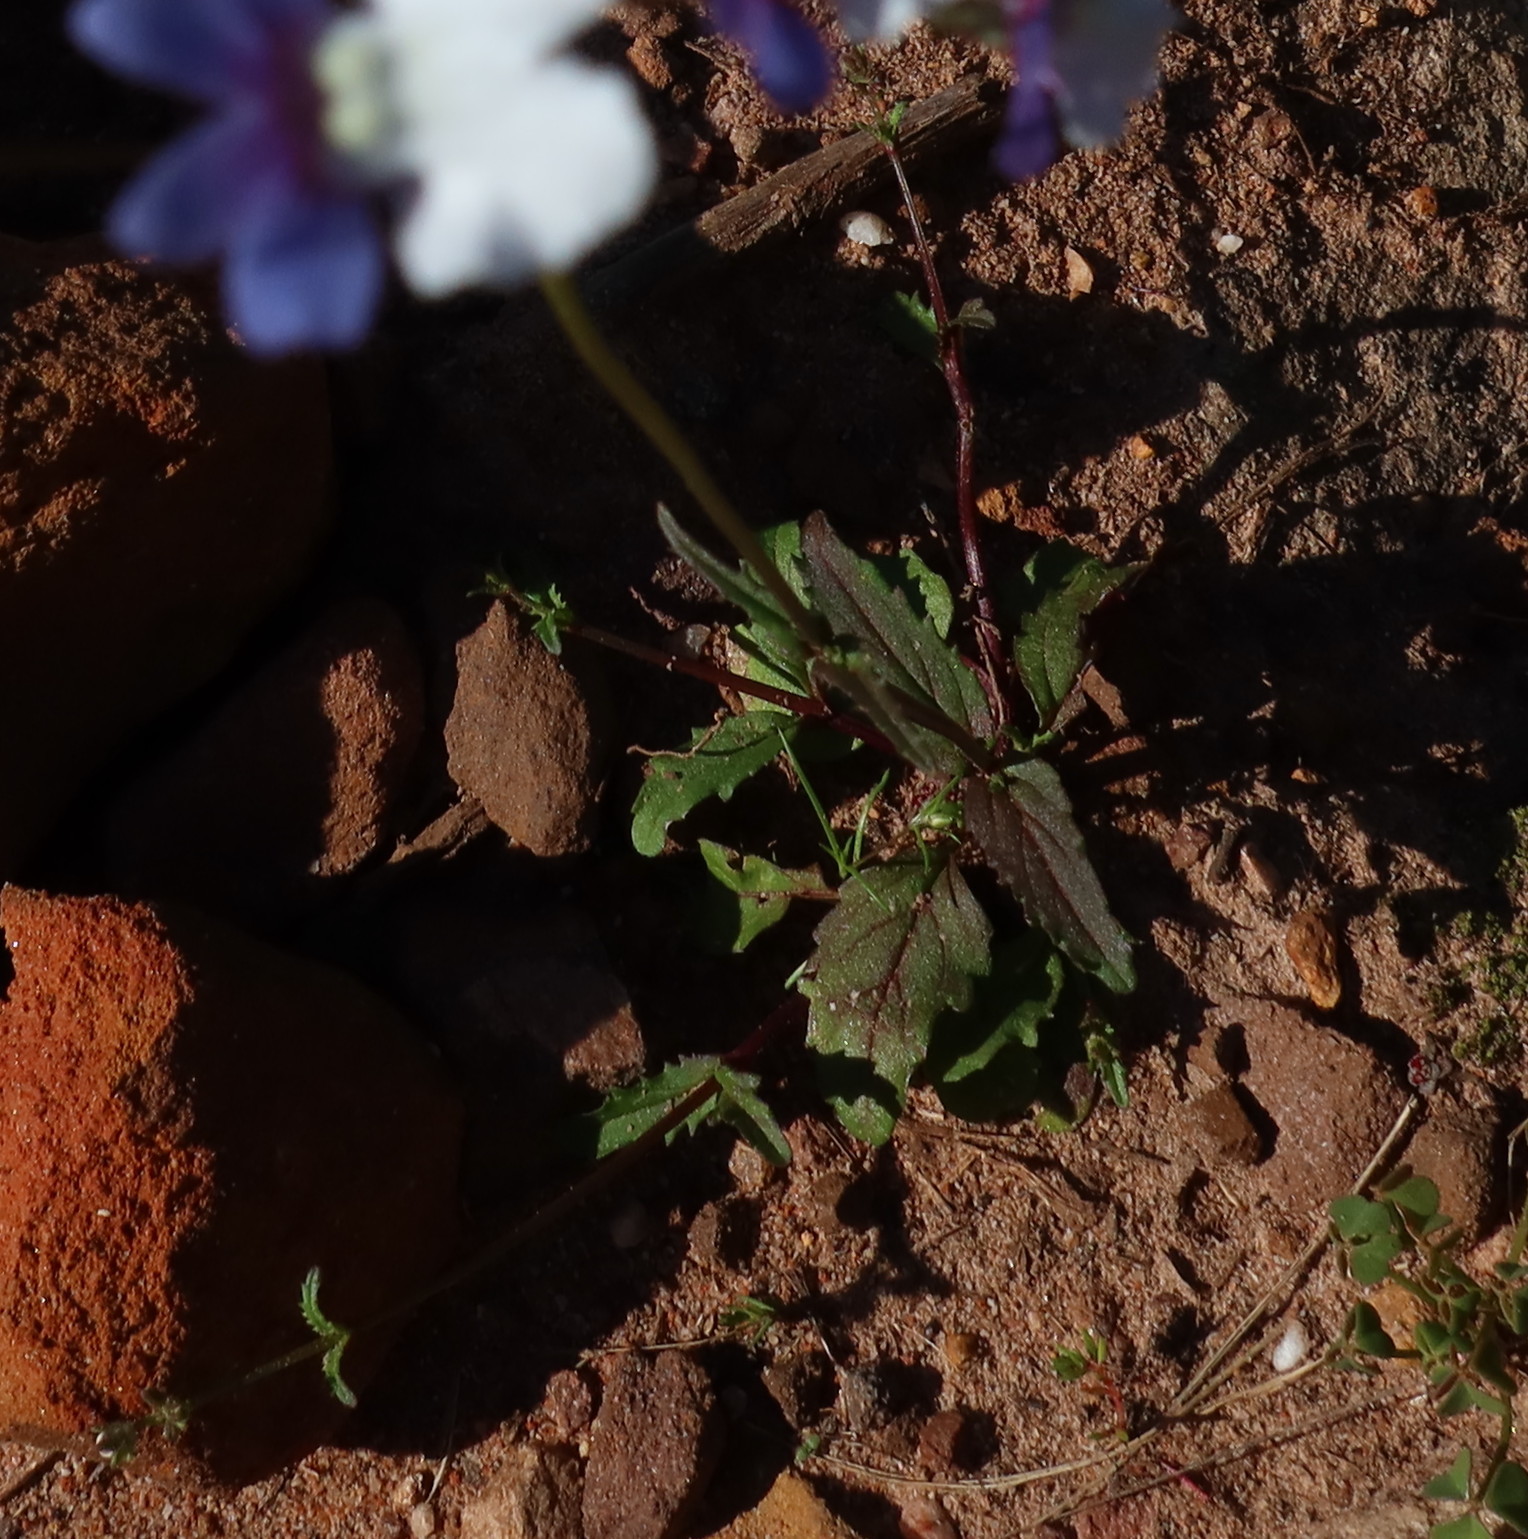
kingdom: Plantae
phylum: Tracheophyta
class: Magnoliopsida
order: Lamiales
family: Scrophulariaceae
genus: Nemesia
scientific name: Nemesia affinis
